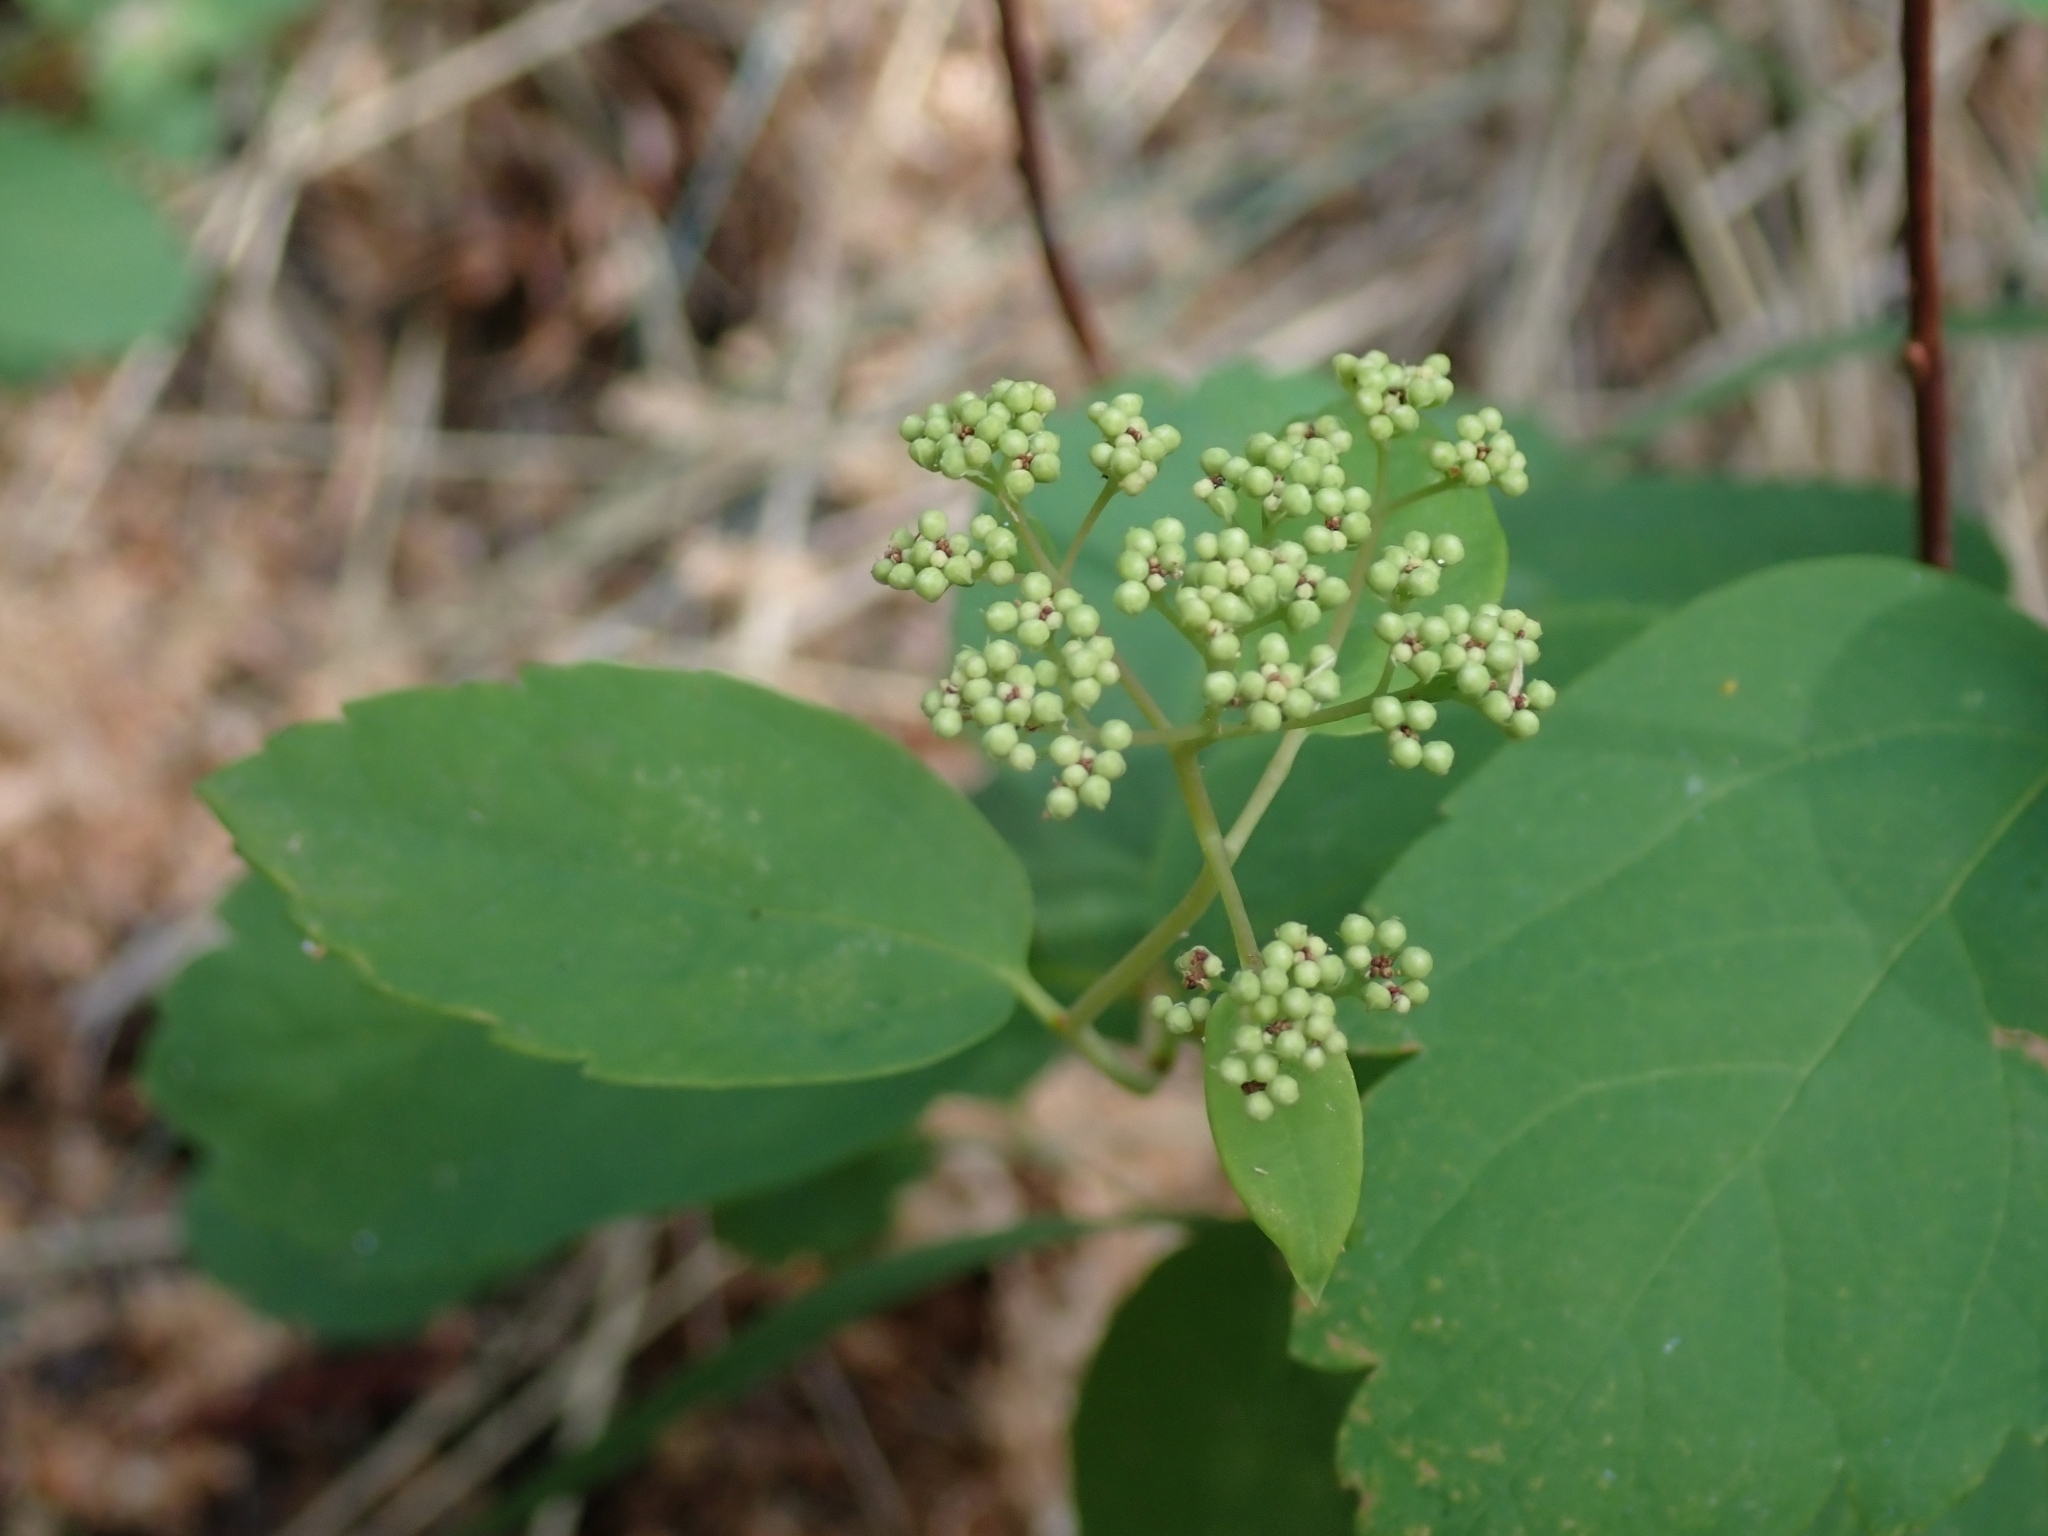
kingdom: Plantae
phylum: Tracheophyta
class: Magnoliopsida
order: Rosales
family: Rosaceae
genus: Spiraea
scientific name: Spiraea lucida
